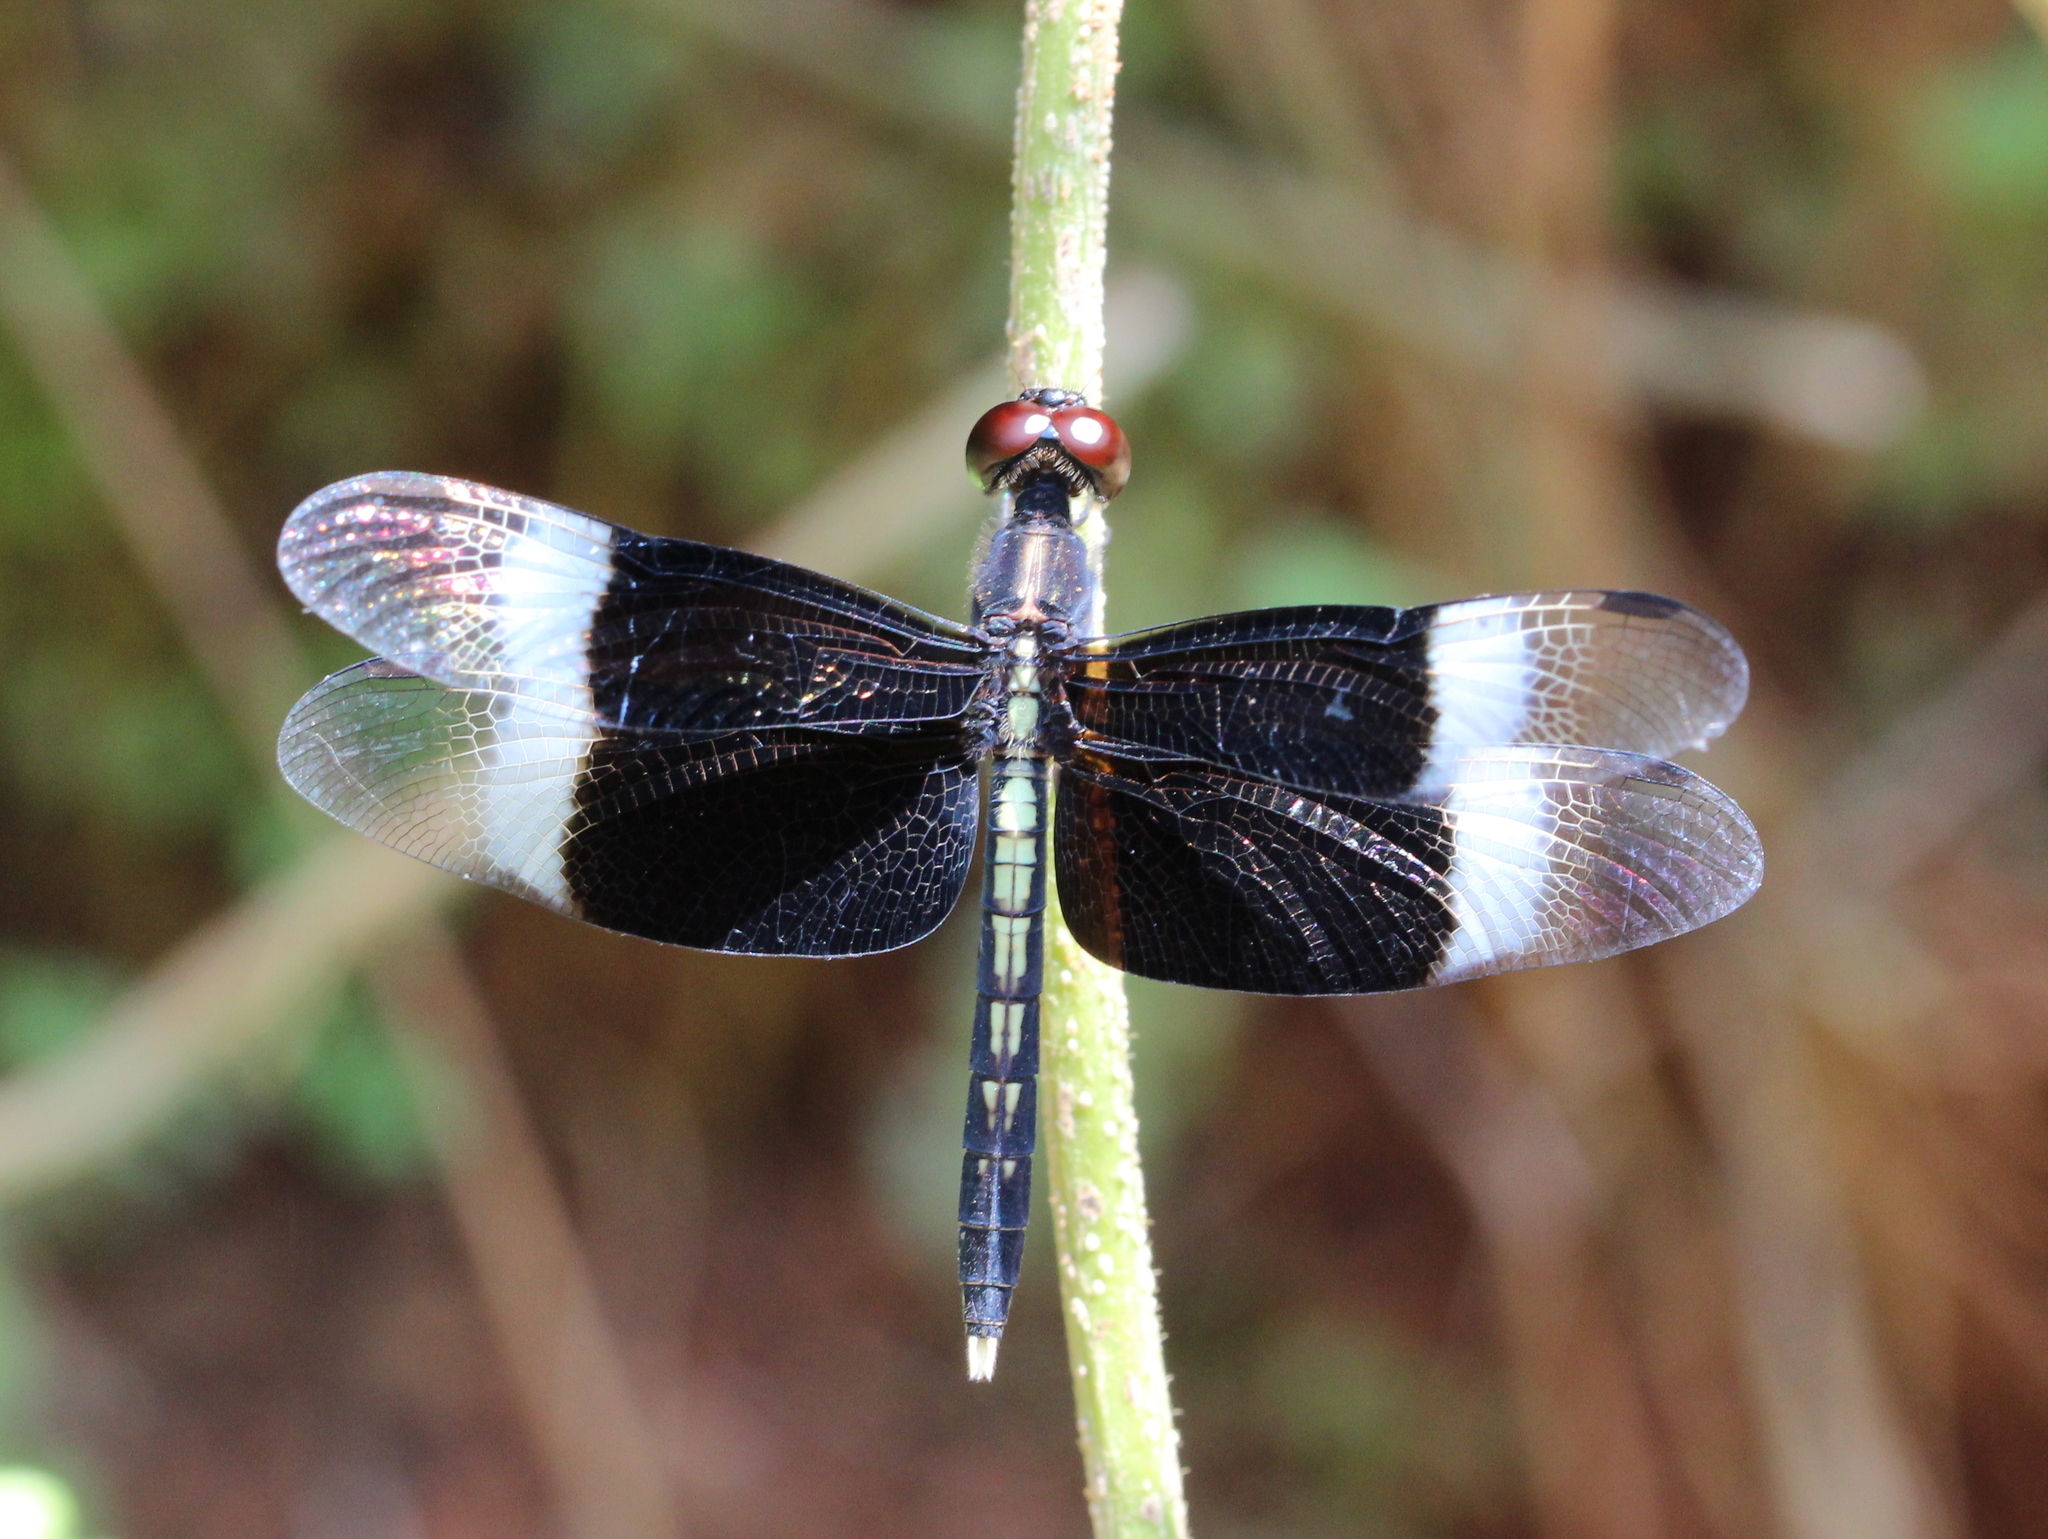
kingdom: Animalia
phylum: Arthropoda
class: Insecta
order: Odonata
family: Libellulidae
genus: Neurothemis
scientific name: Neurothemis tullia
